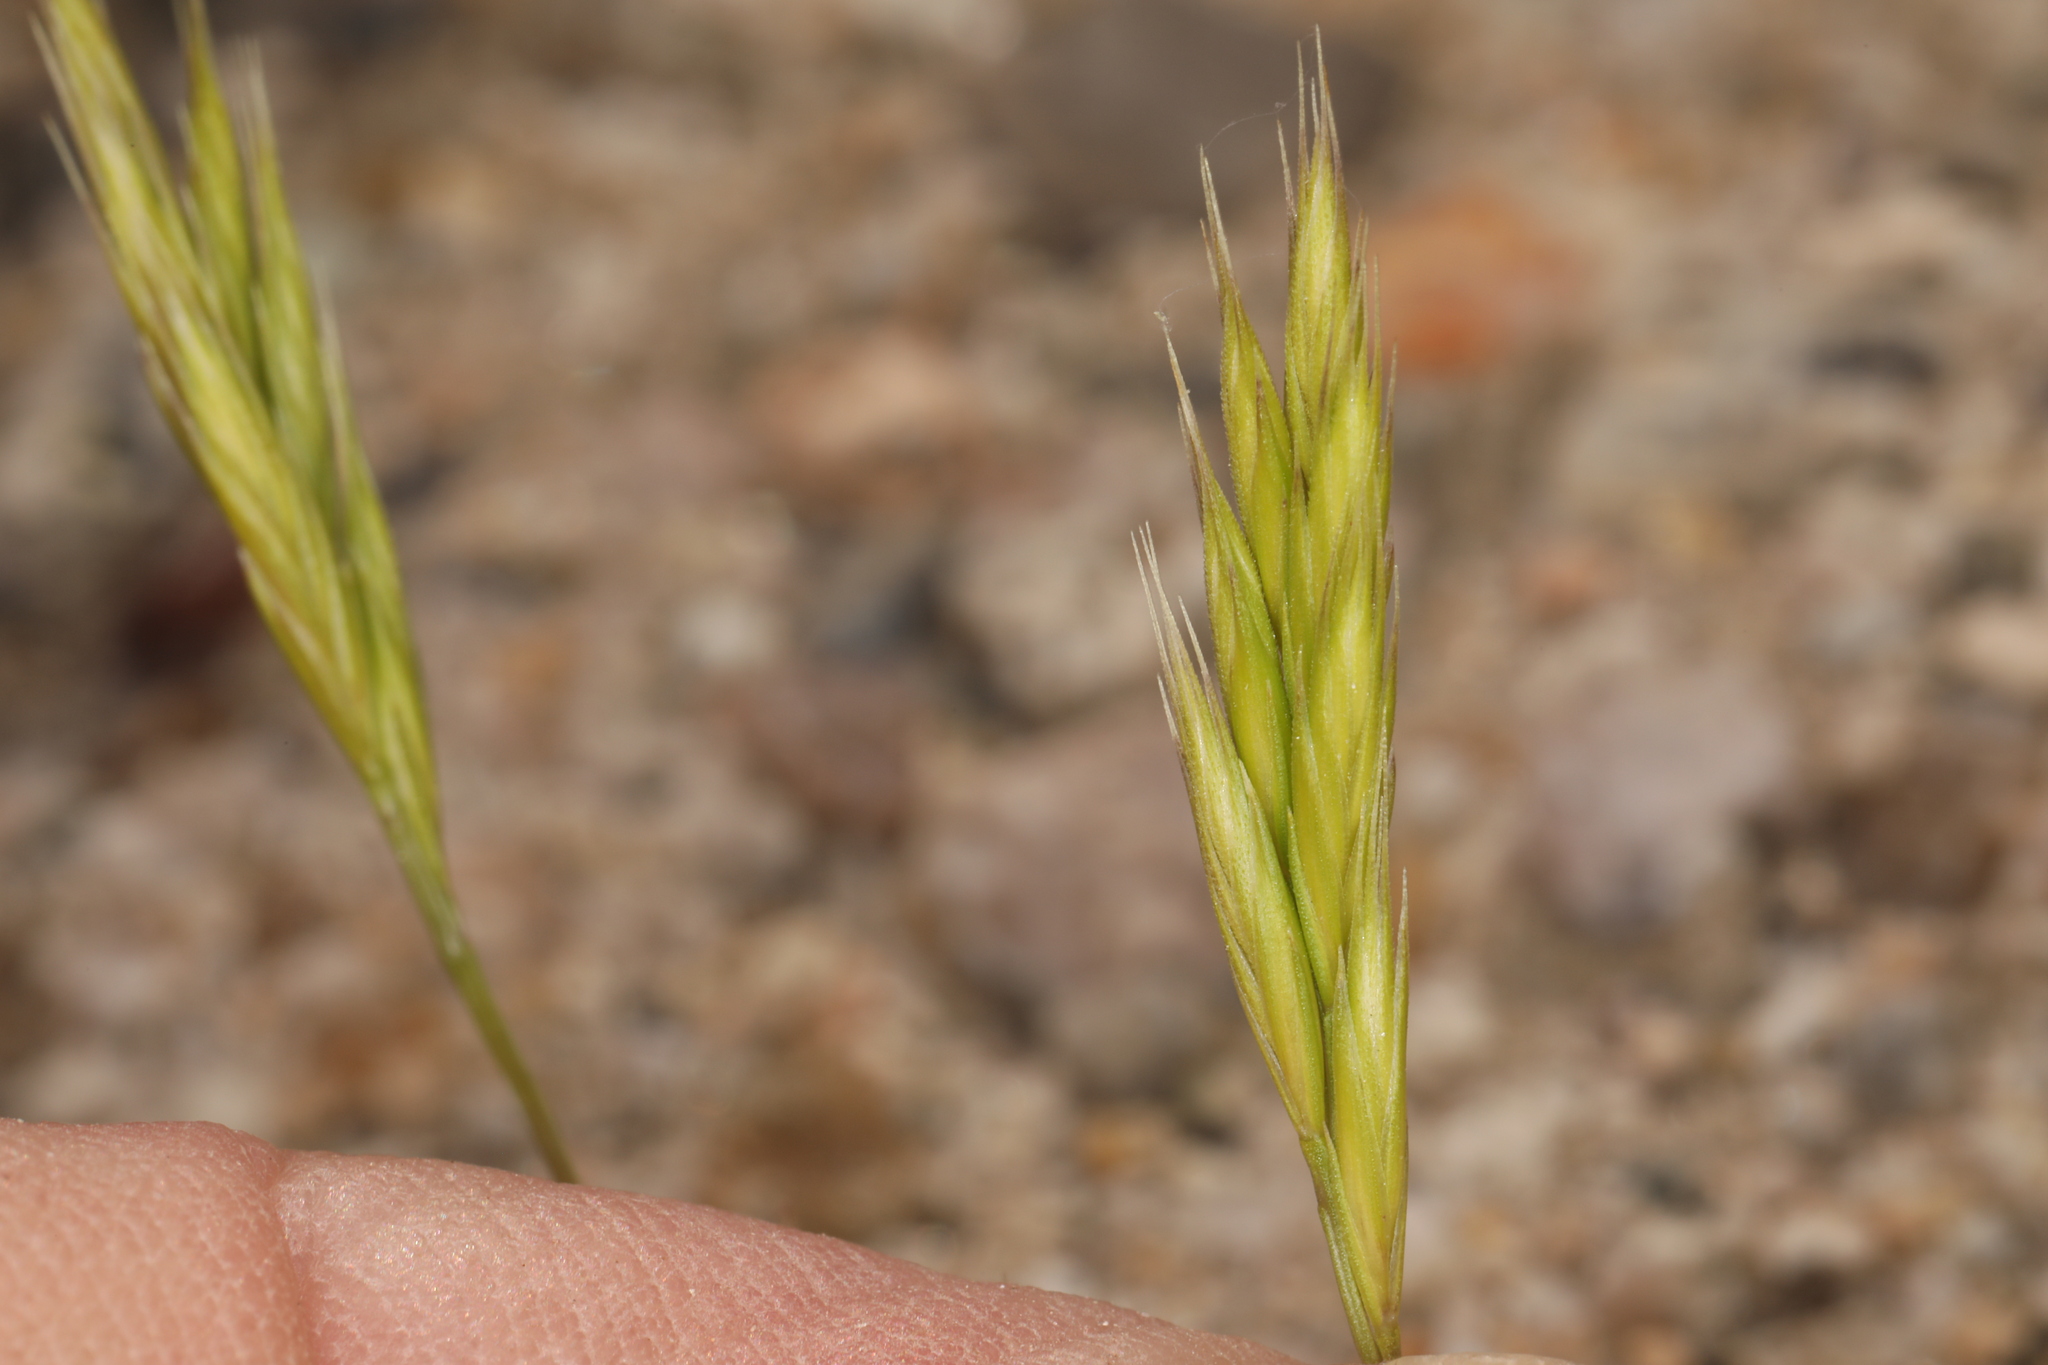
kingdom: Plantae
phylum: Tracheophyta
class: Liliopsida
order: Poales
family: Poaceae
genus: Festuca
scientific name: Festuca octoflora
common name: Sixweeks grass
